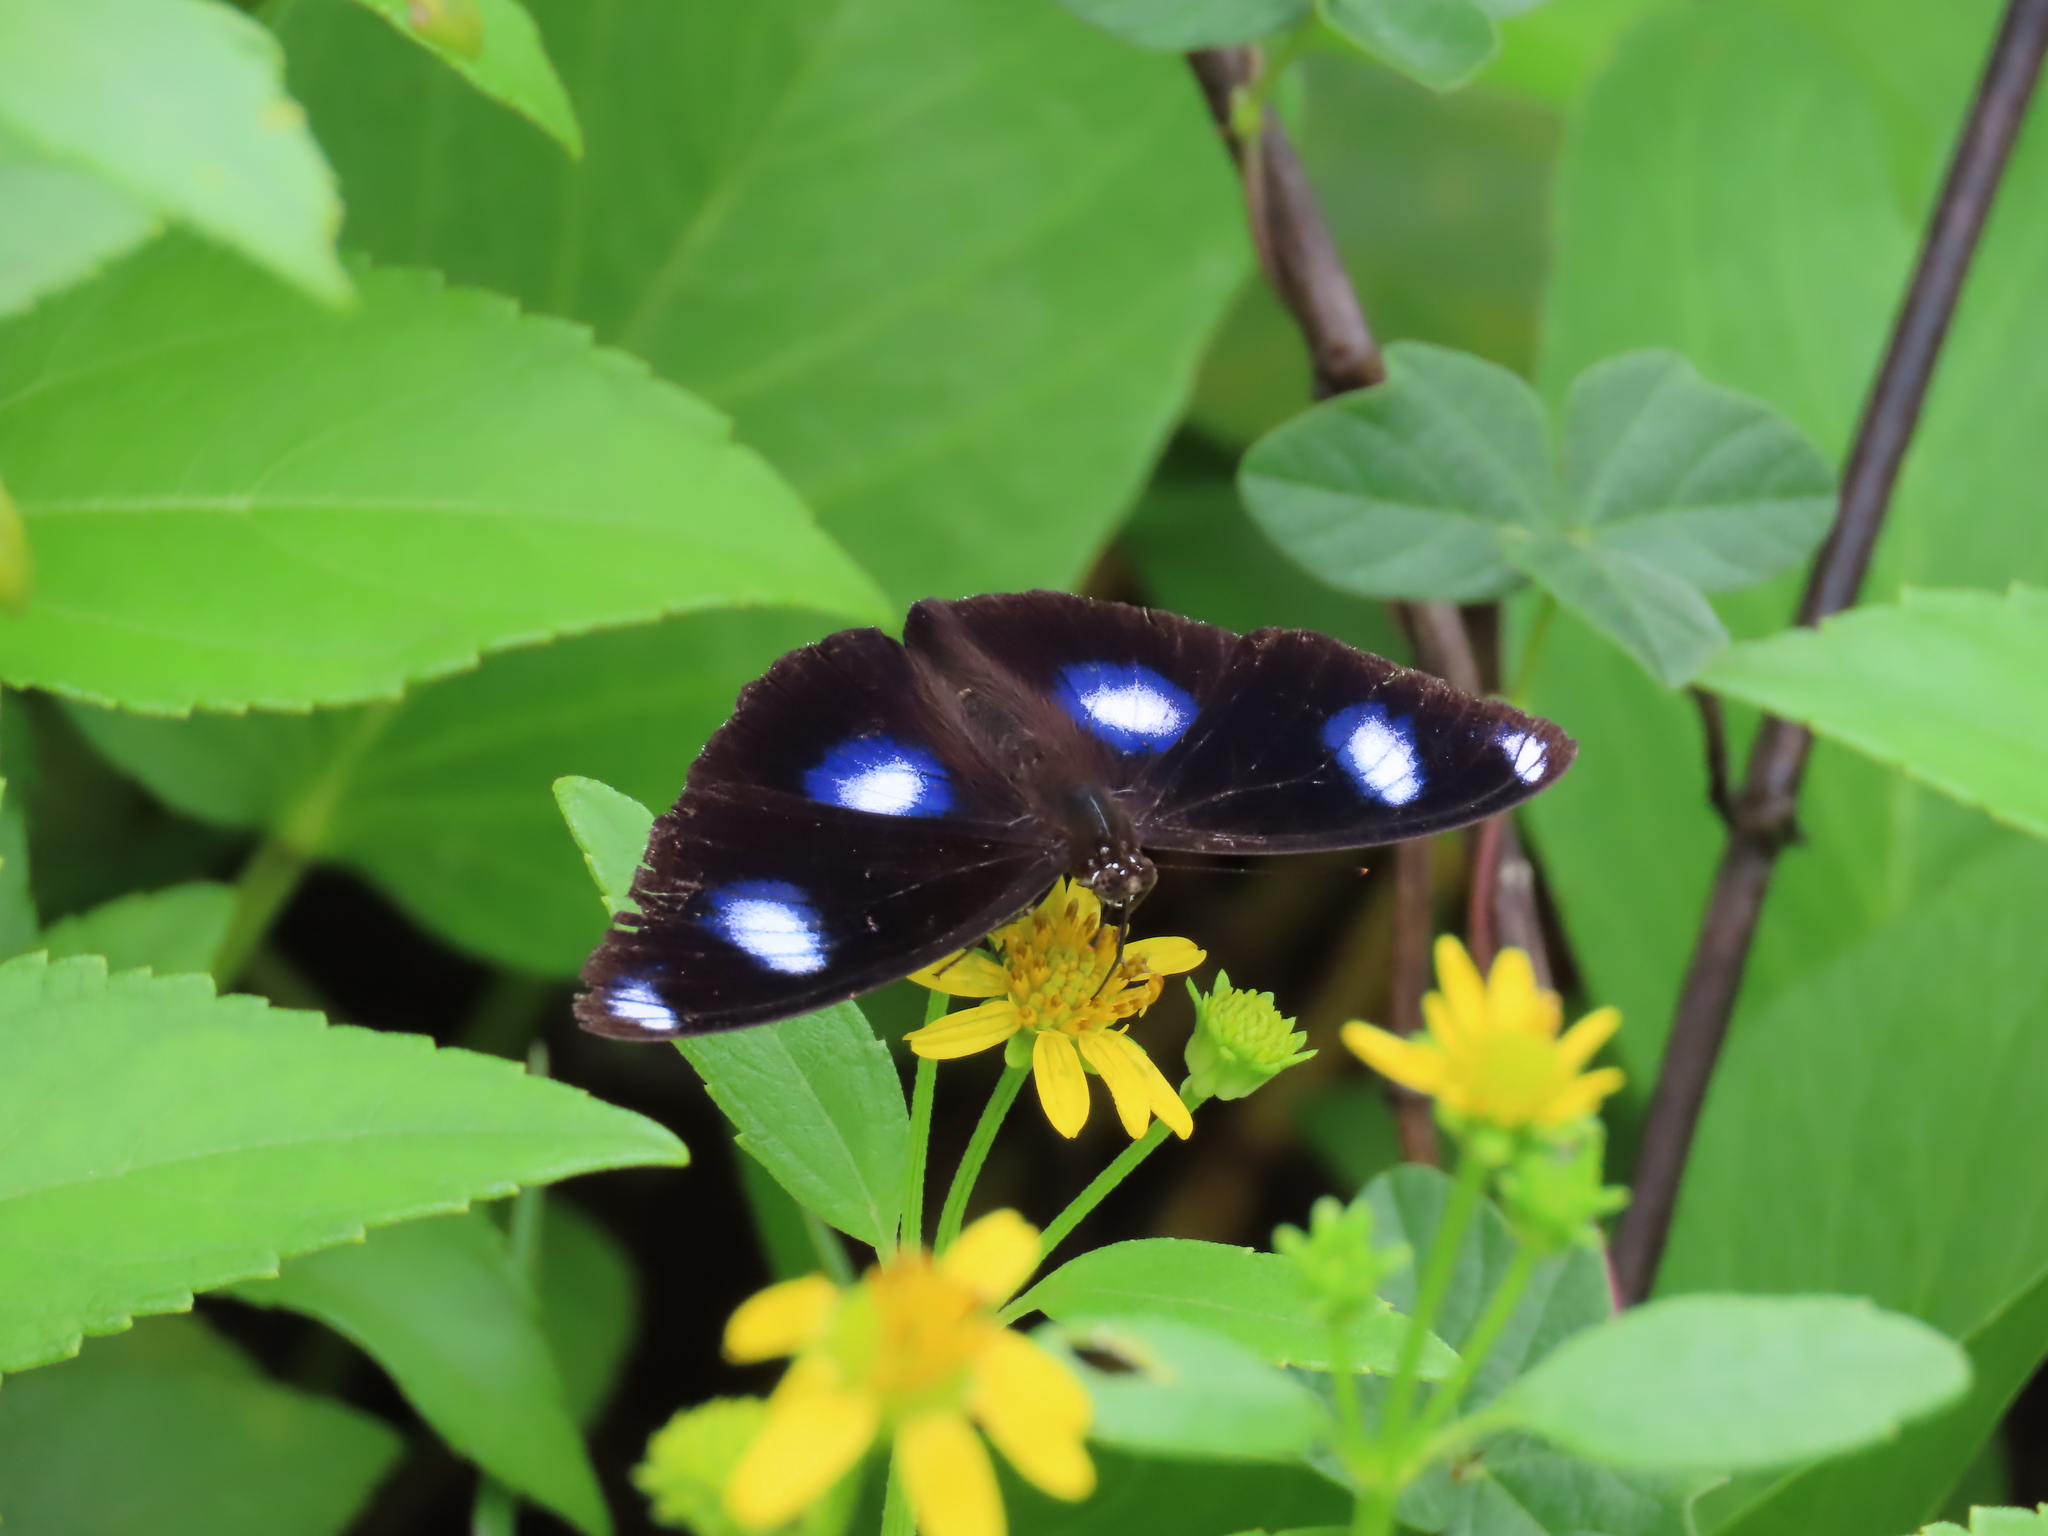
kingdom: Animalia
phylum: Arthropoda
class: Insecta
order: Lepidoptera
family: Nymphalidae
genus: Hypolimnas
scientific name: Hypolimnas bolina
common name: Great eggfly
